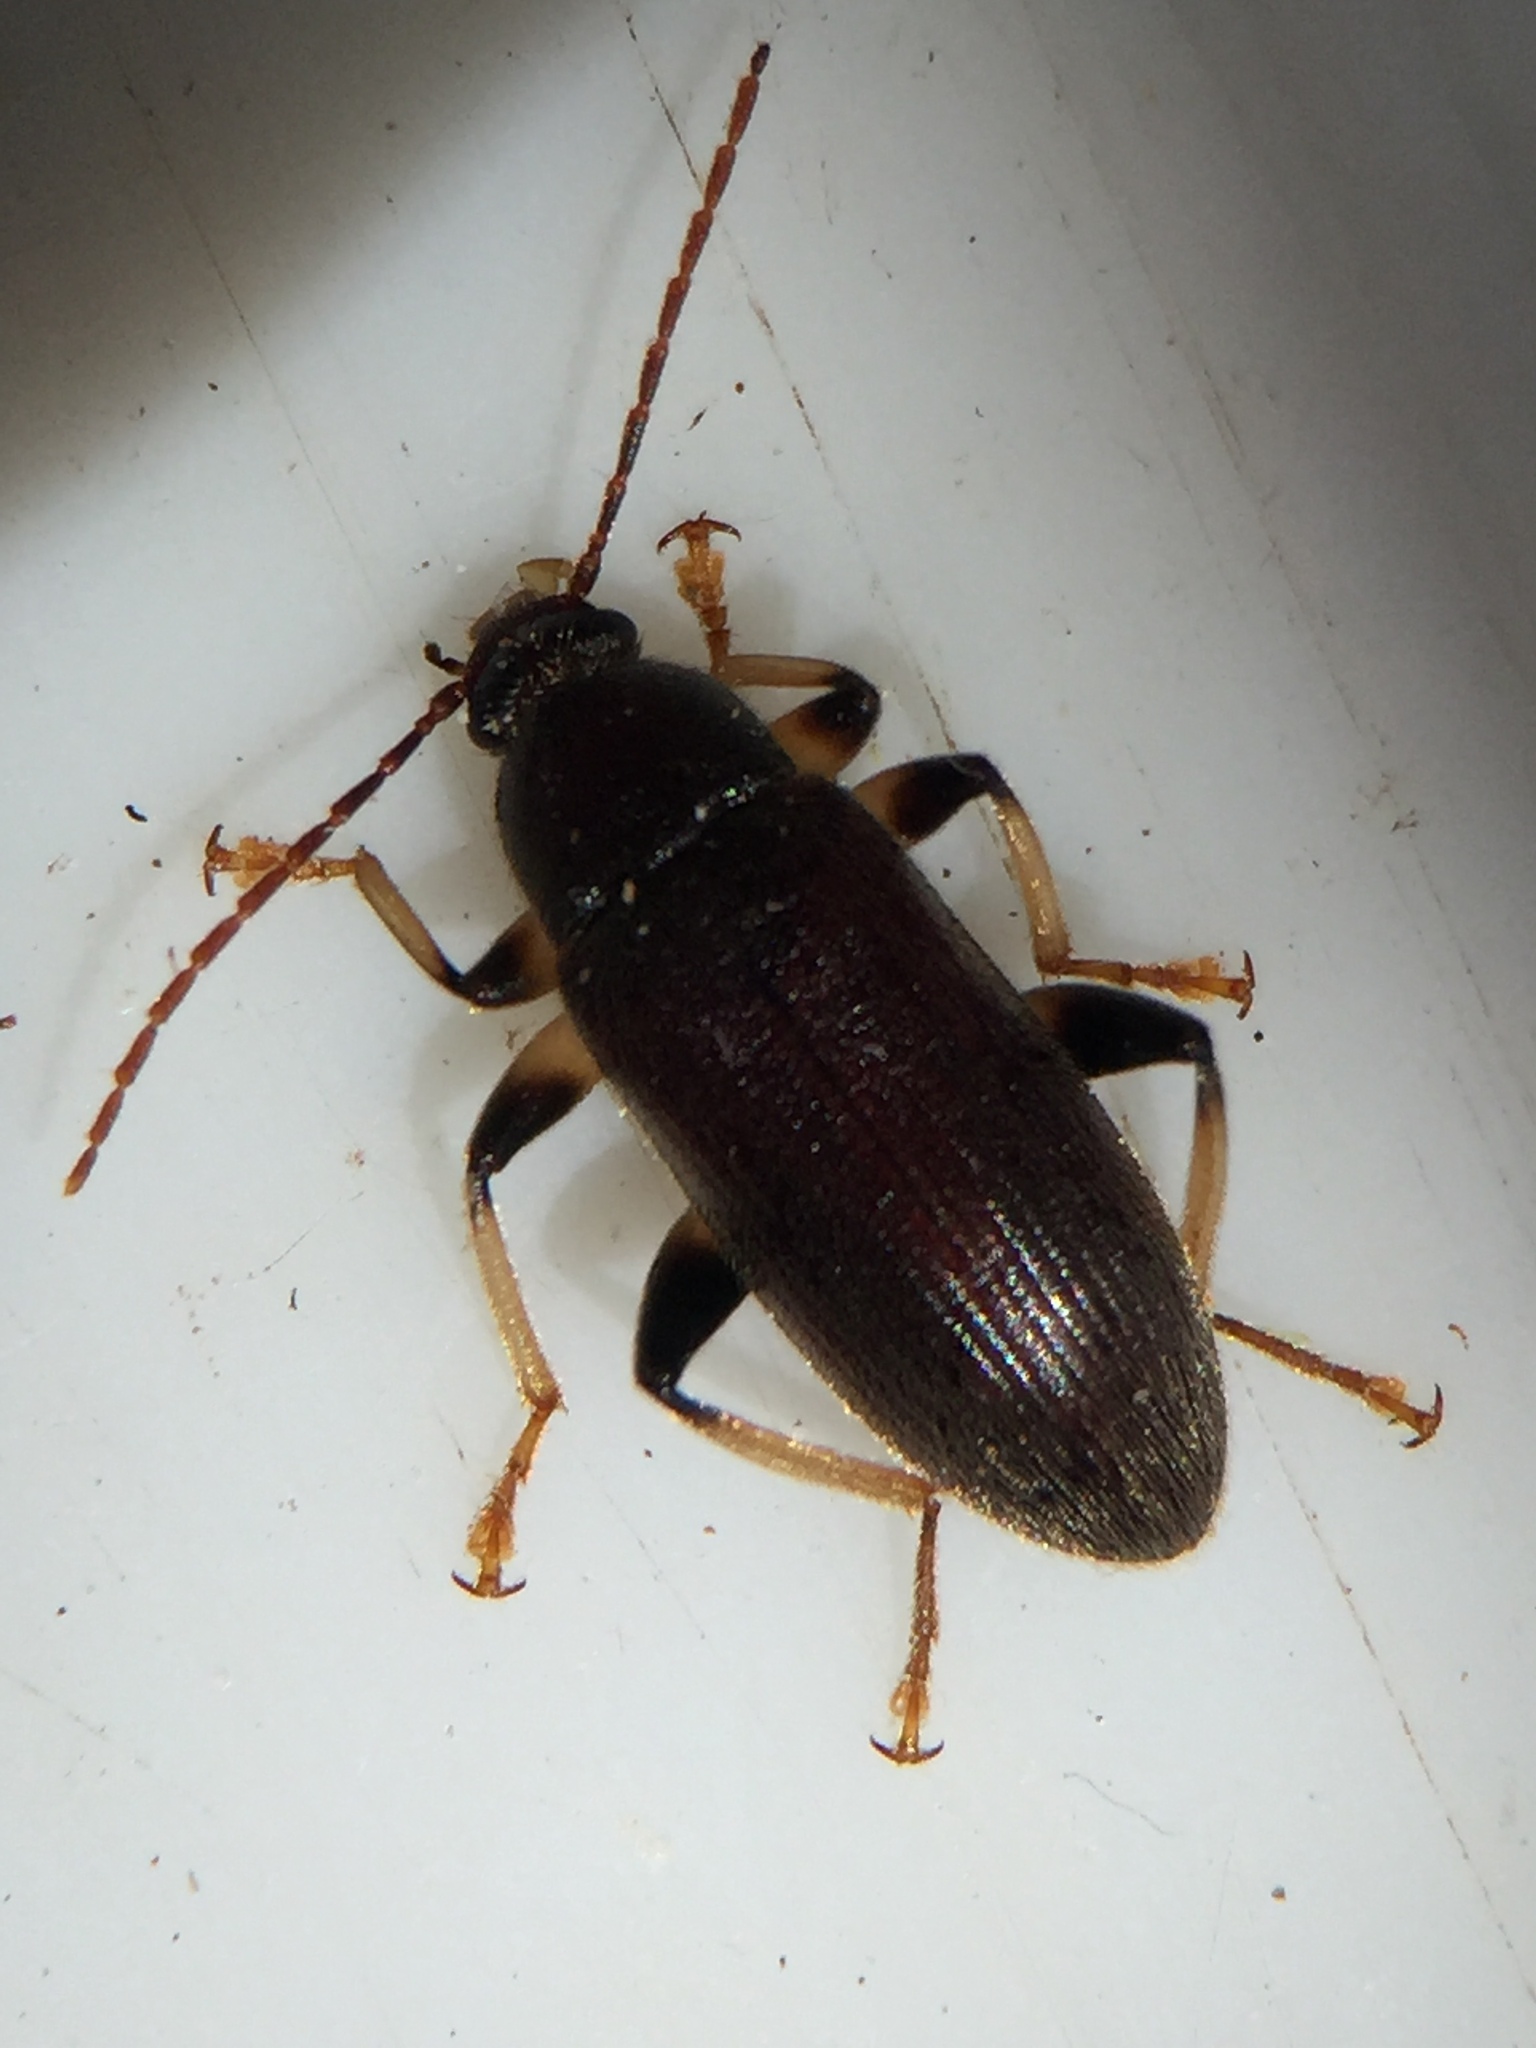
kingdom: Animalia
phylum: Arthropoda
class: Insecta
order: Coleoptera
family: Tenebrionidae
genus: Homotrysis
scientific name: Homotrysis
